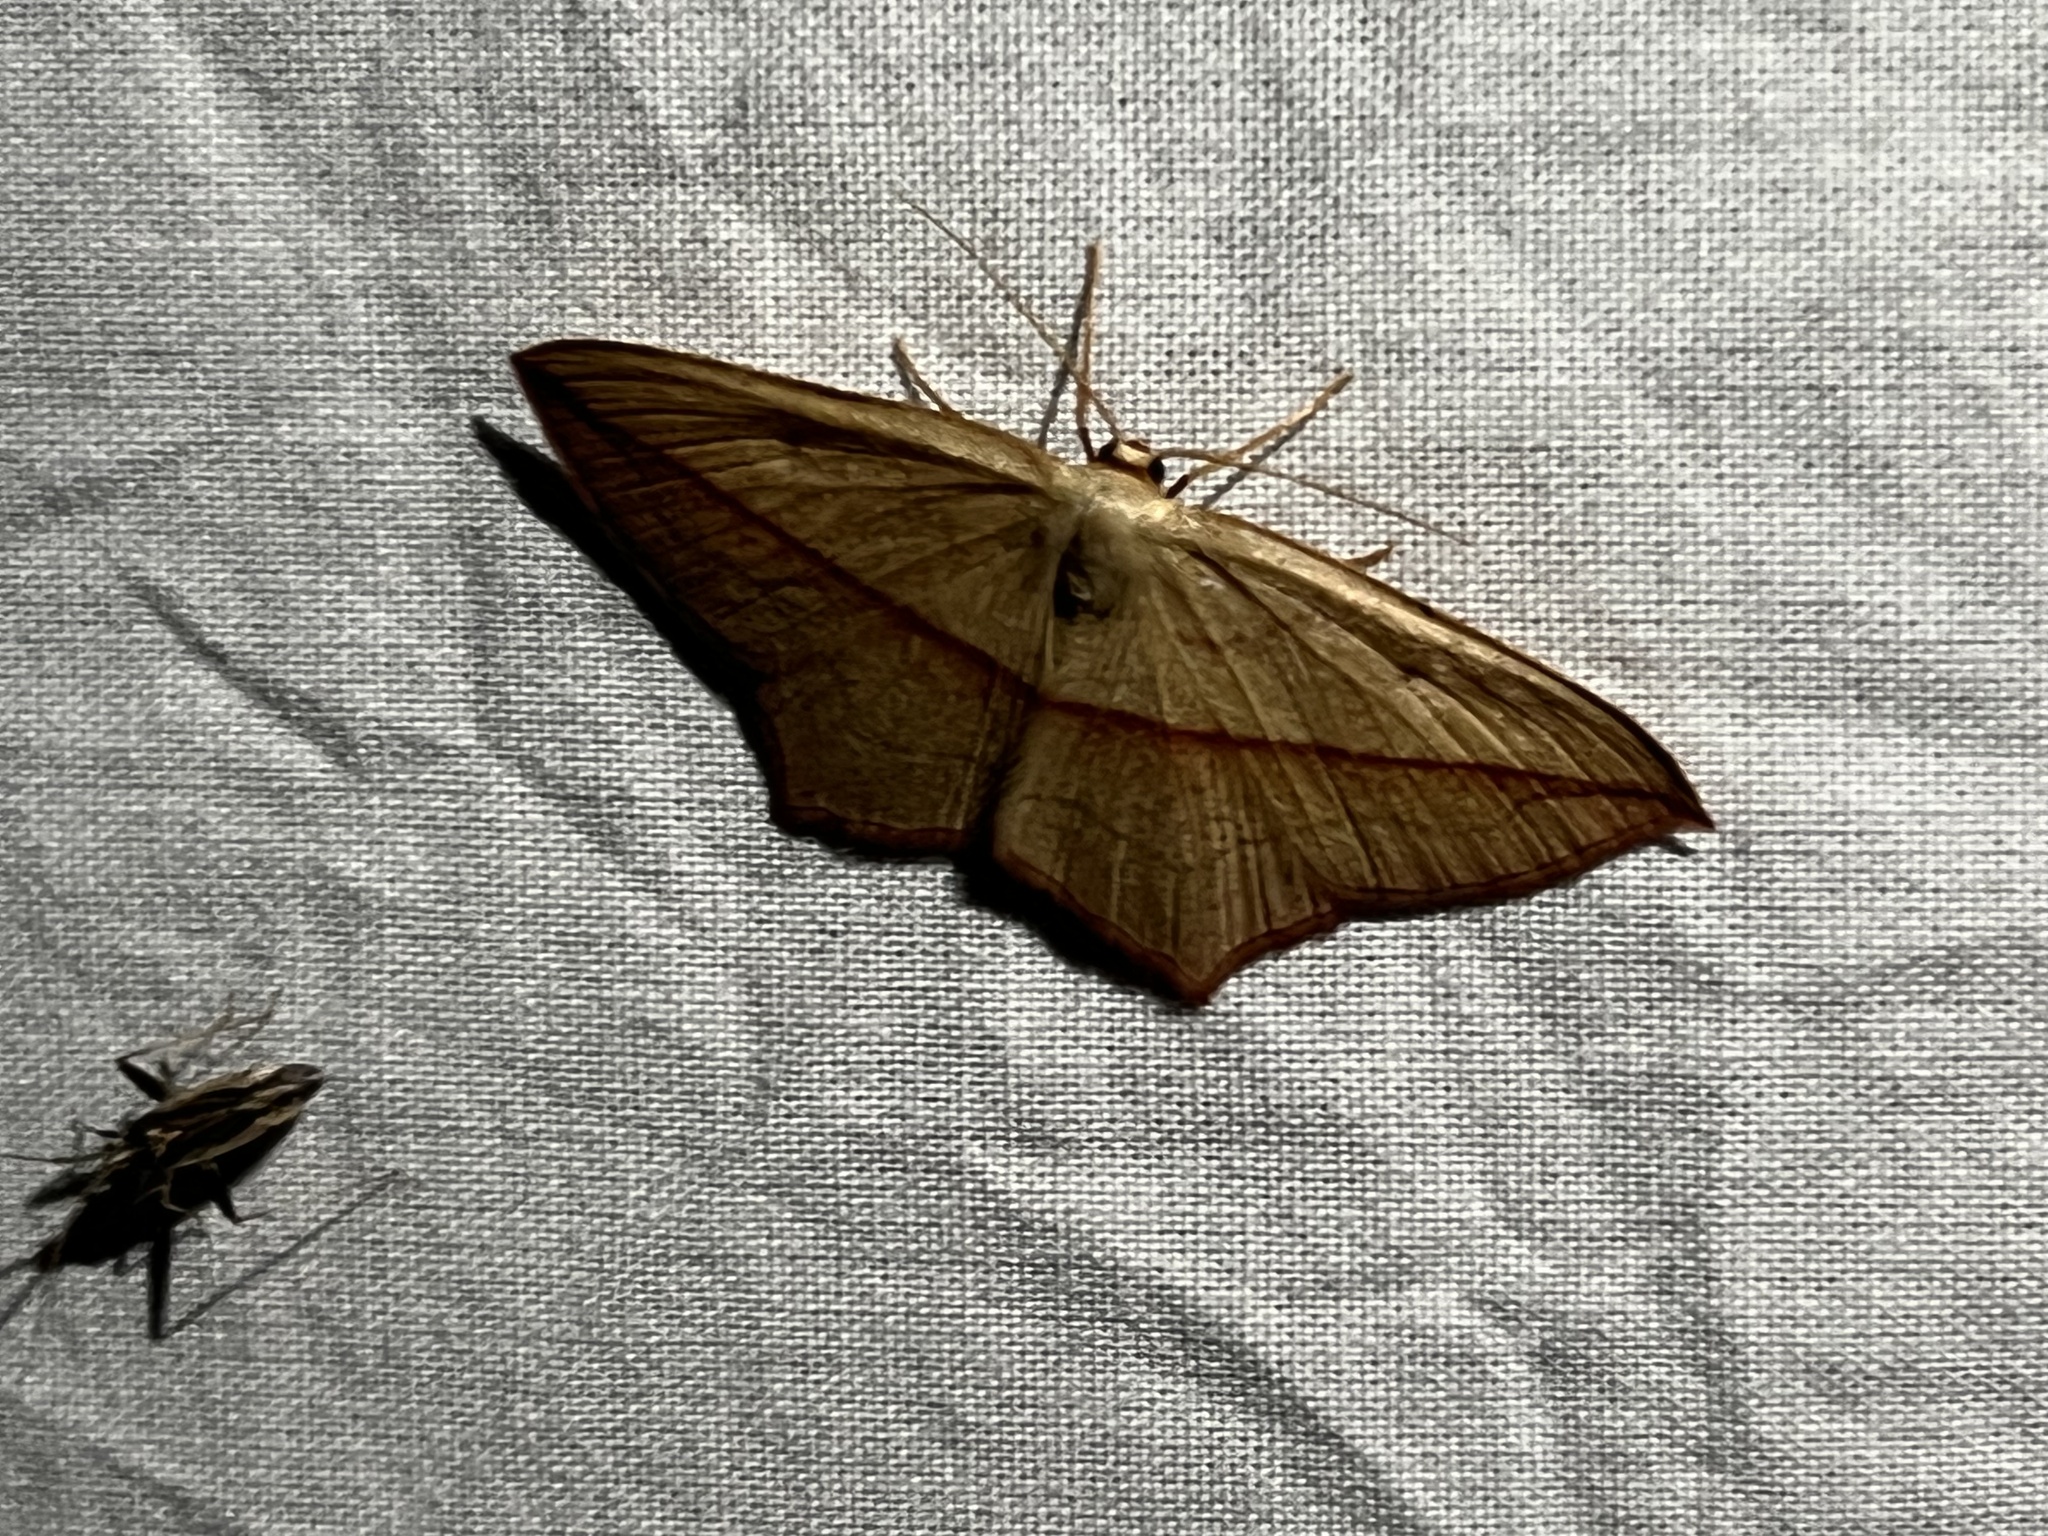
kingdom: Animalia
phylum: Arthropoda
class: Insecta
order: Lepidoptera
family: Geometridae
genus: Timandra
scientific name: Timandra comae
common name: Blood-vein
